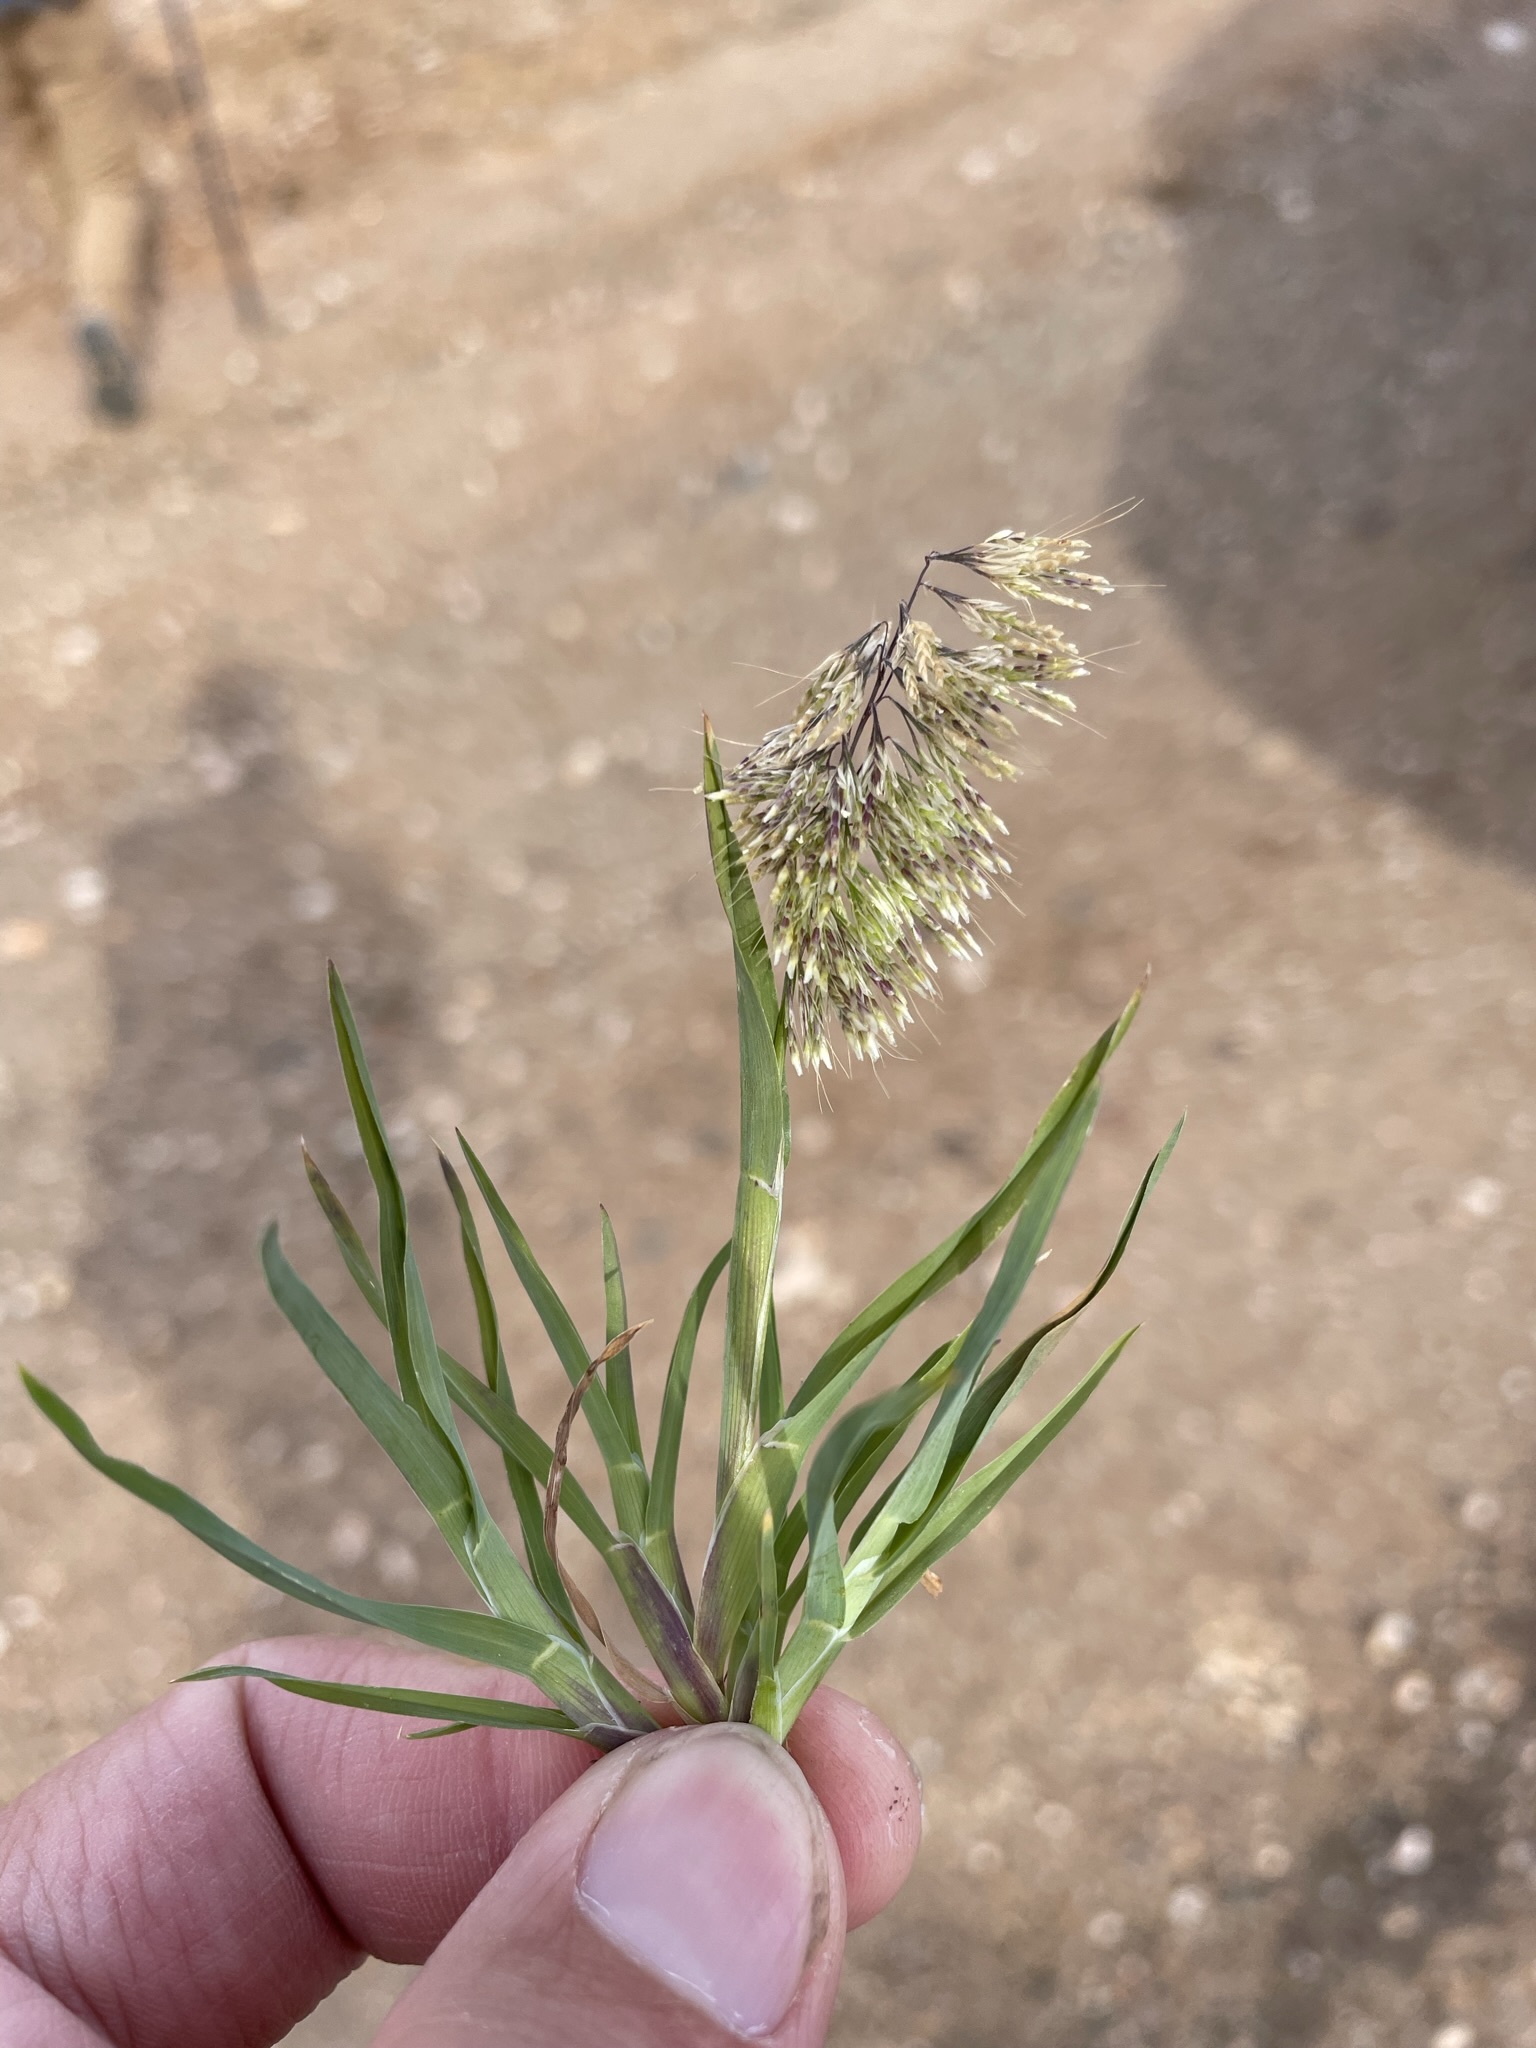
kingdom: Plantae
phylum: Tracheophyta
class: Liliopsida
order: Poales
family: Poaceae
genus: Lamarckia
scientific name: Lamarckia aurea
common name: Golden dog's-tail
